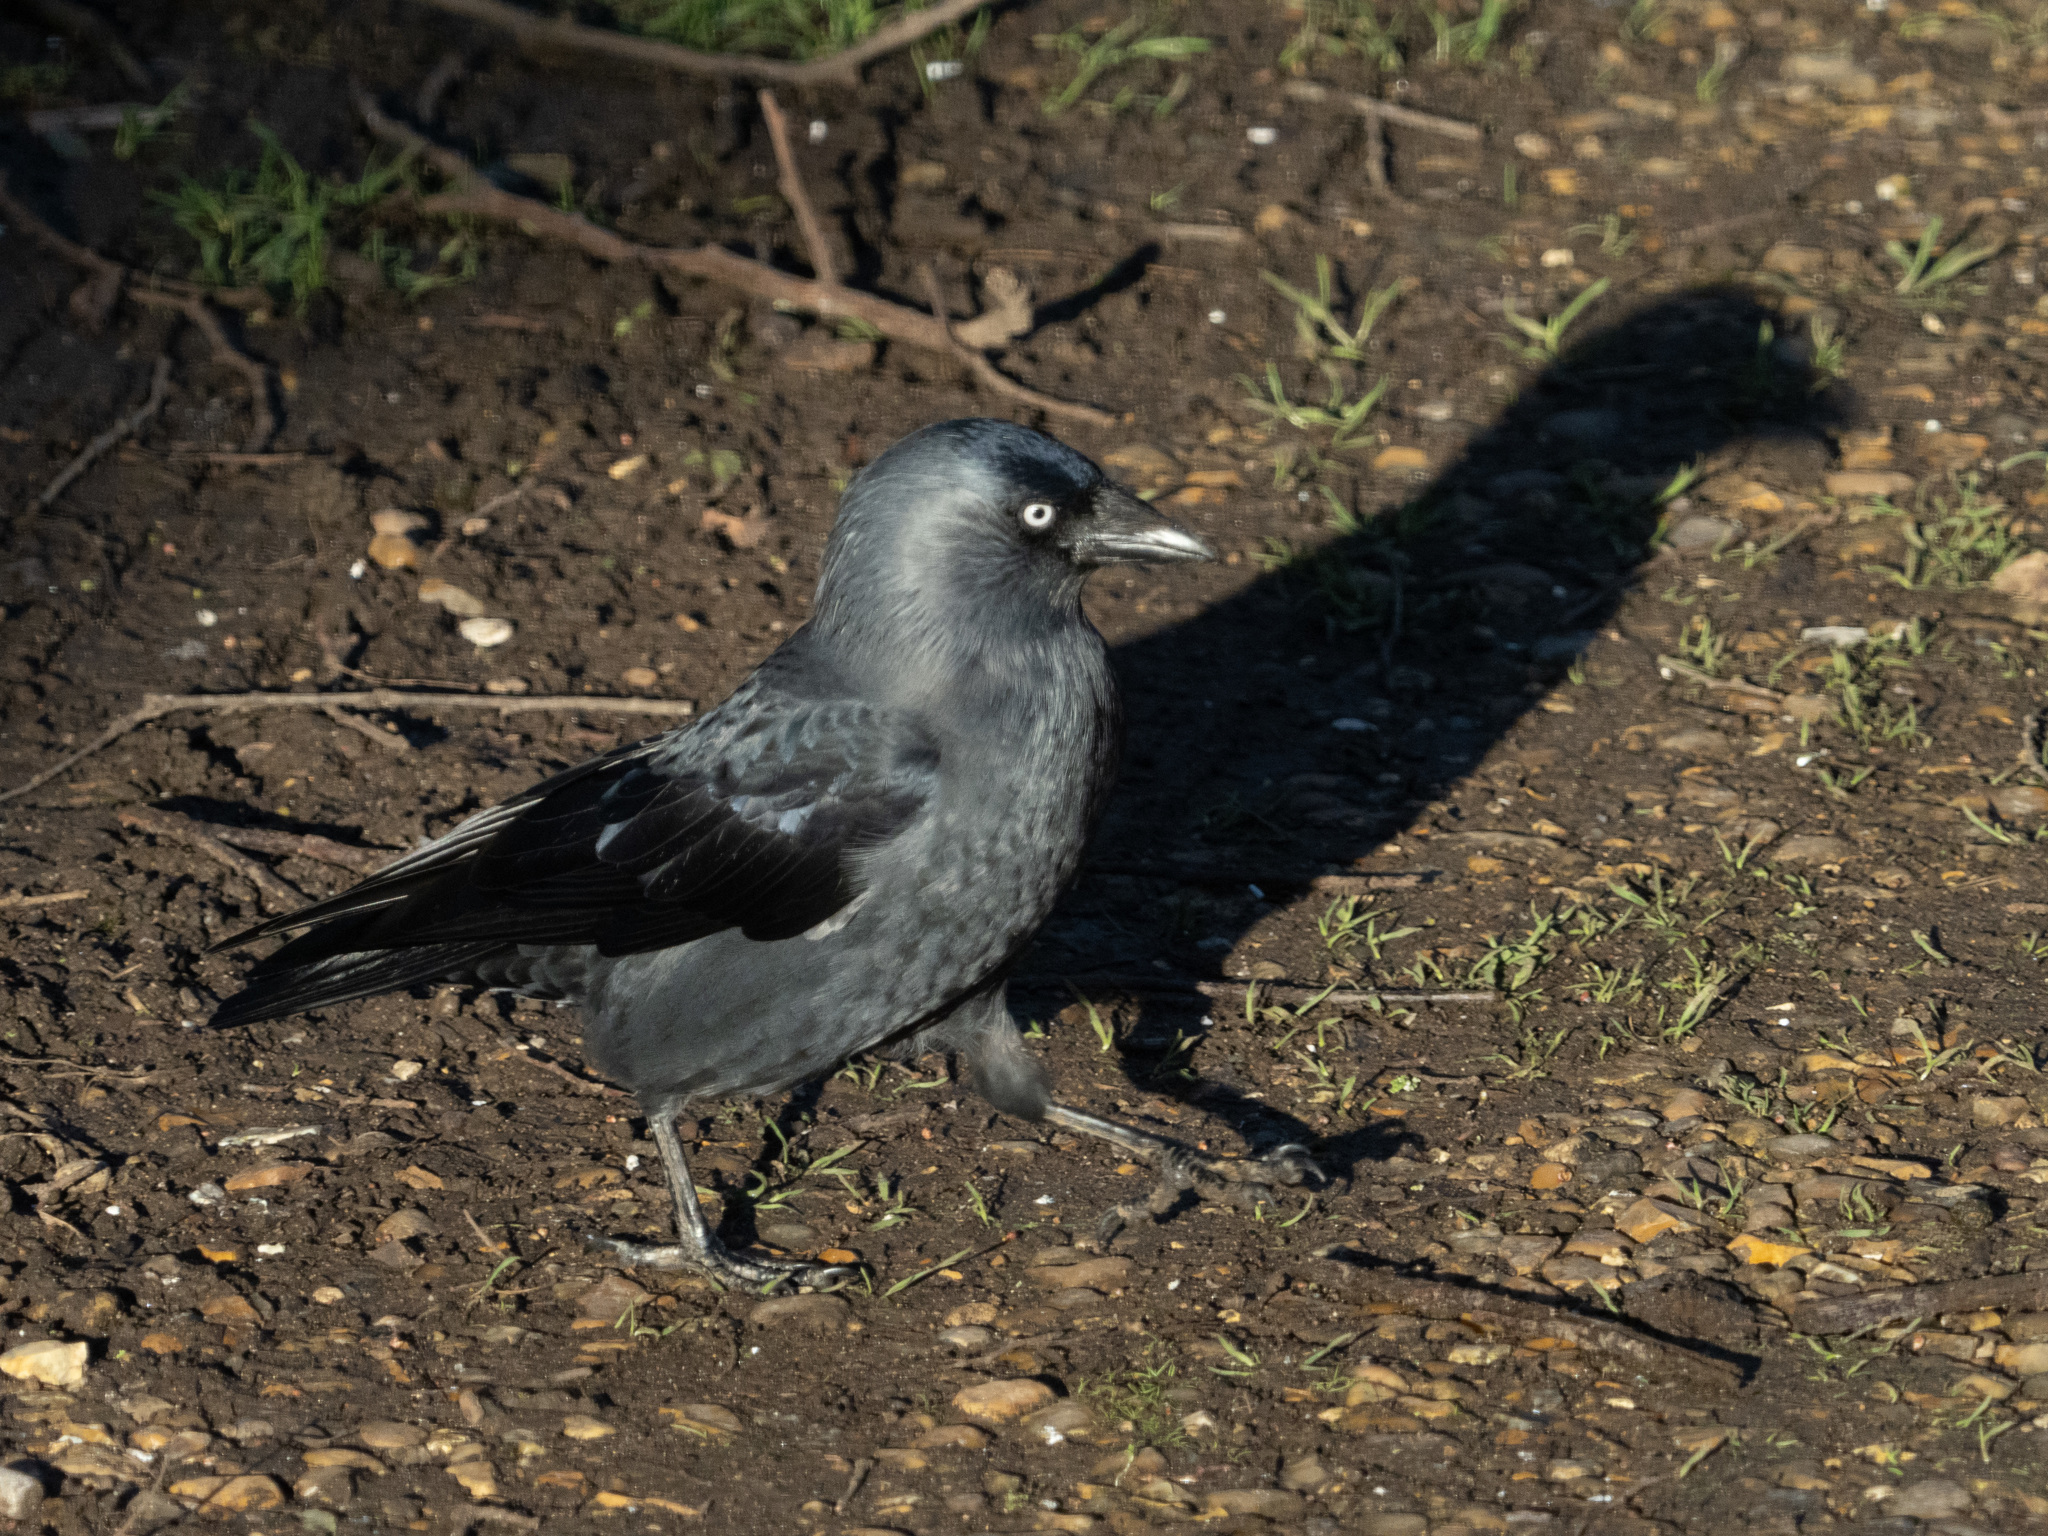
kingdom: Animalia
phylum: Chordata
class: Aves
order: Passeriformes
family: Corvidae
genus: Coloeus
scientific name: Coloeus monedula
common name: Western jackdaw
